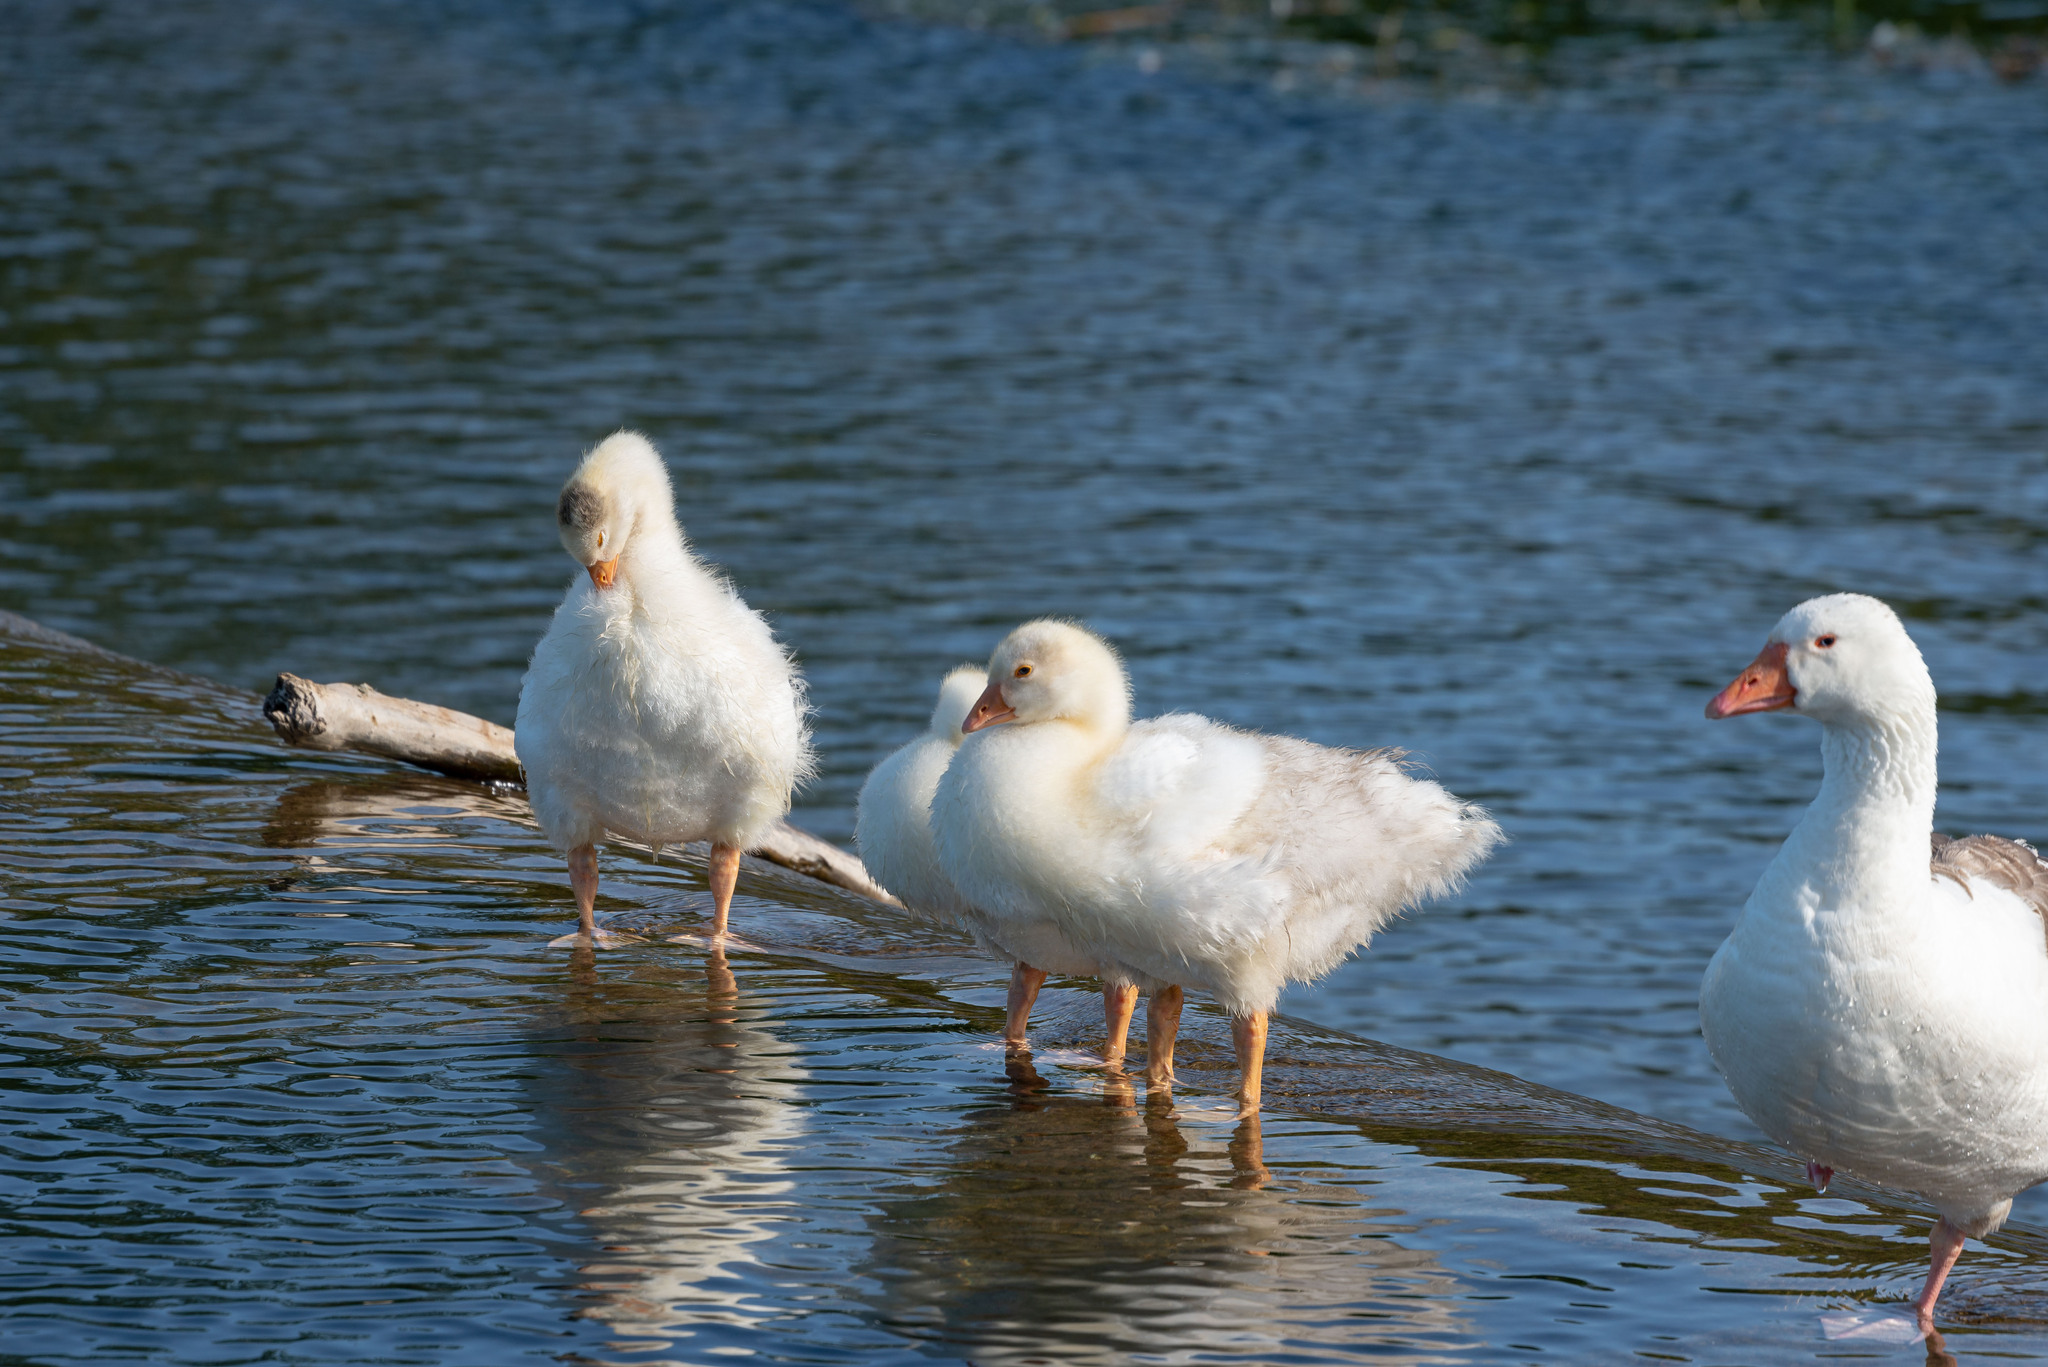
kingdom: Animalia
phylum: Chordata
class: Aves
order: Anseriformes
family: Anatidae
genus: Anser
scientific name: Anser anser
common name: Greylag goose
